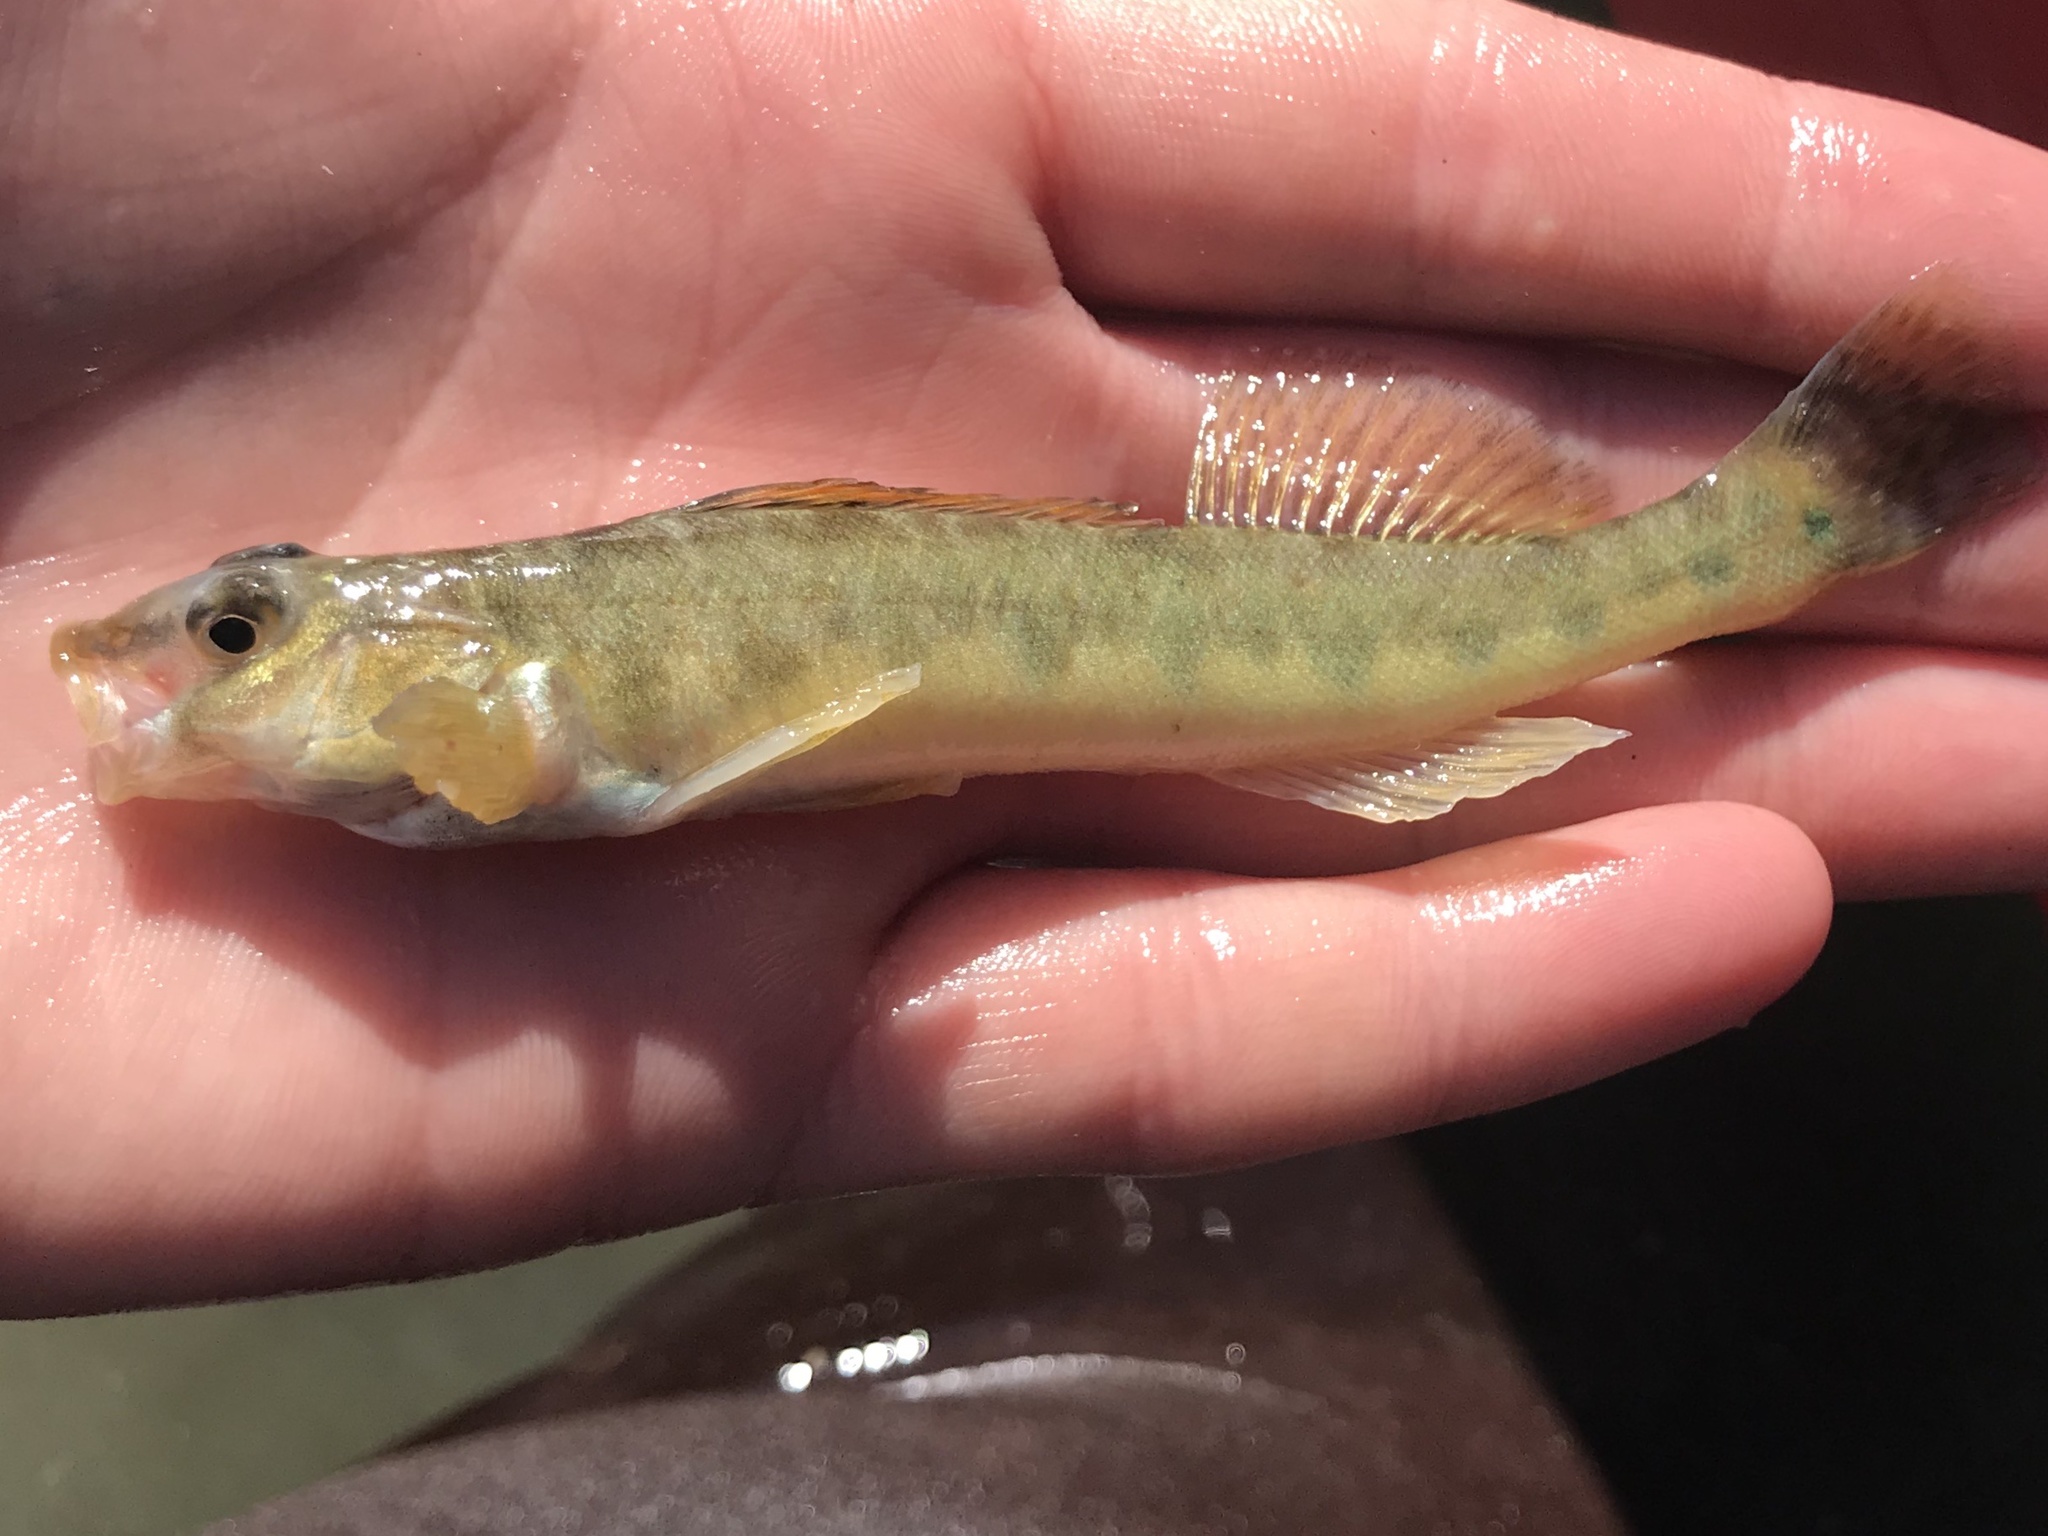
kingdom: Animalia
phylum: Chordata
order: Perciformes
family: Percidae
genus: Percina
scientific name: Percina carbonaria
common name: Texas logperch
